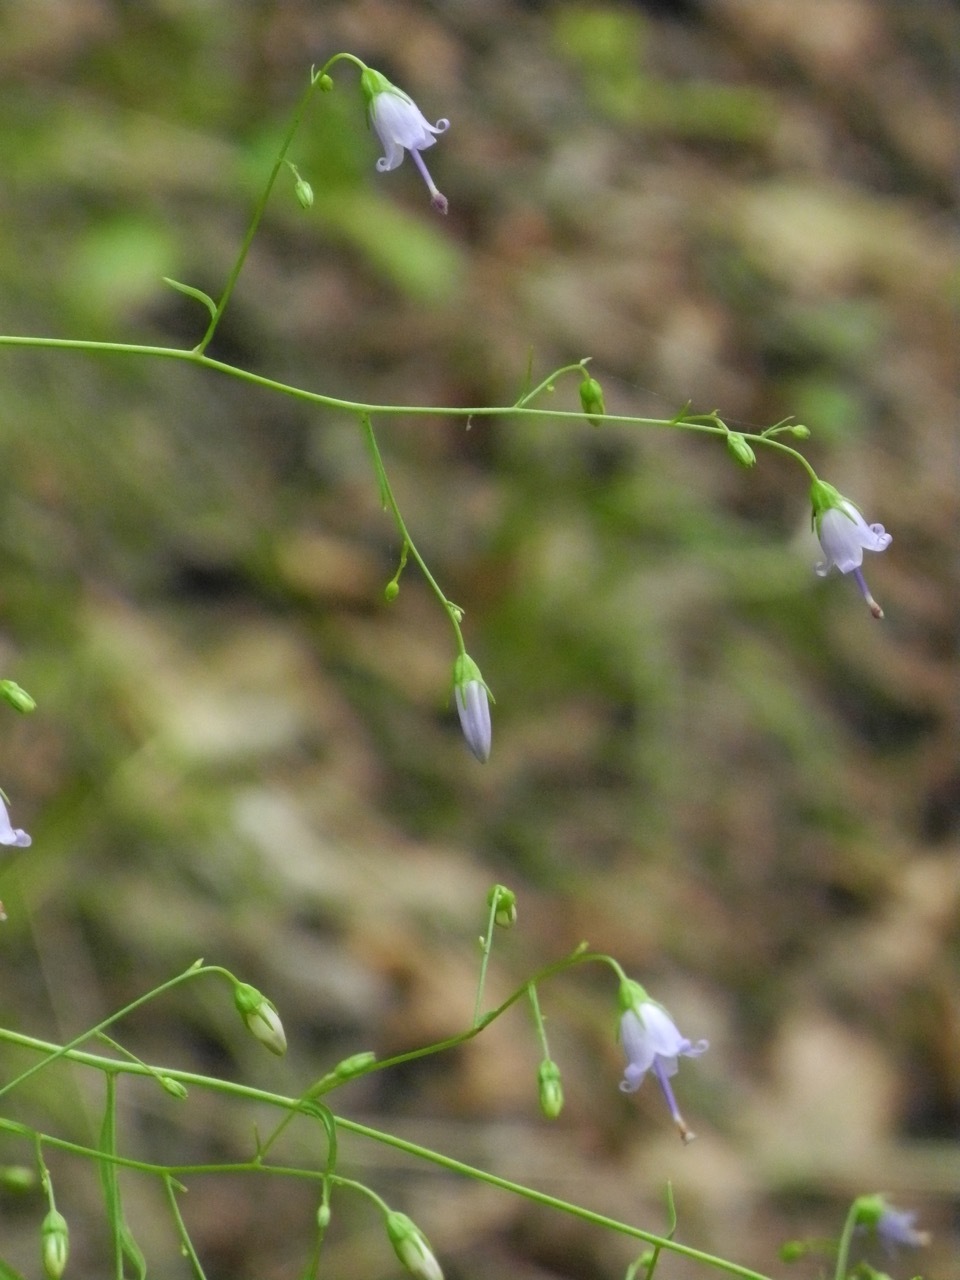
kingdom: Plantae
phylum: Tracheophyta
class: Magnoliopsida
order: Asterales
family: Campanulaceae
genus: Campanula
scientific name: Campanula divaricata
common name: Appalachian bellflower
